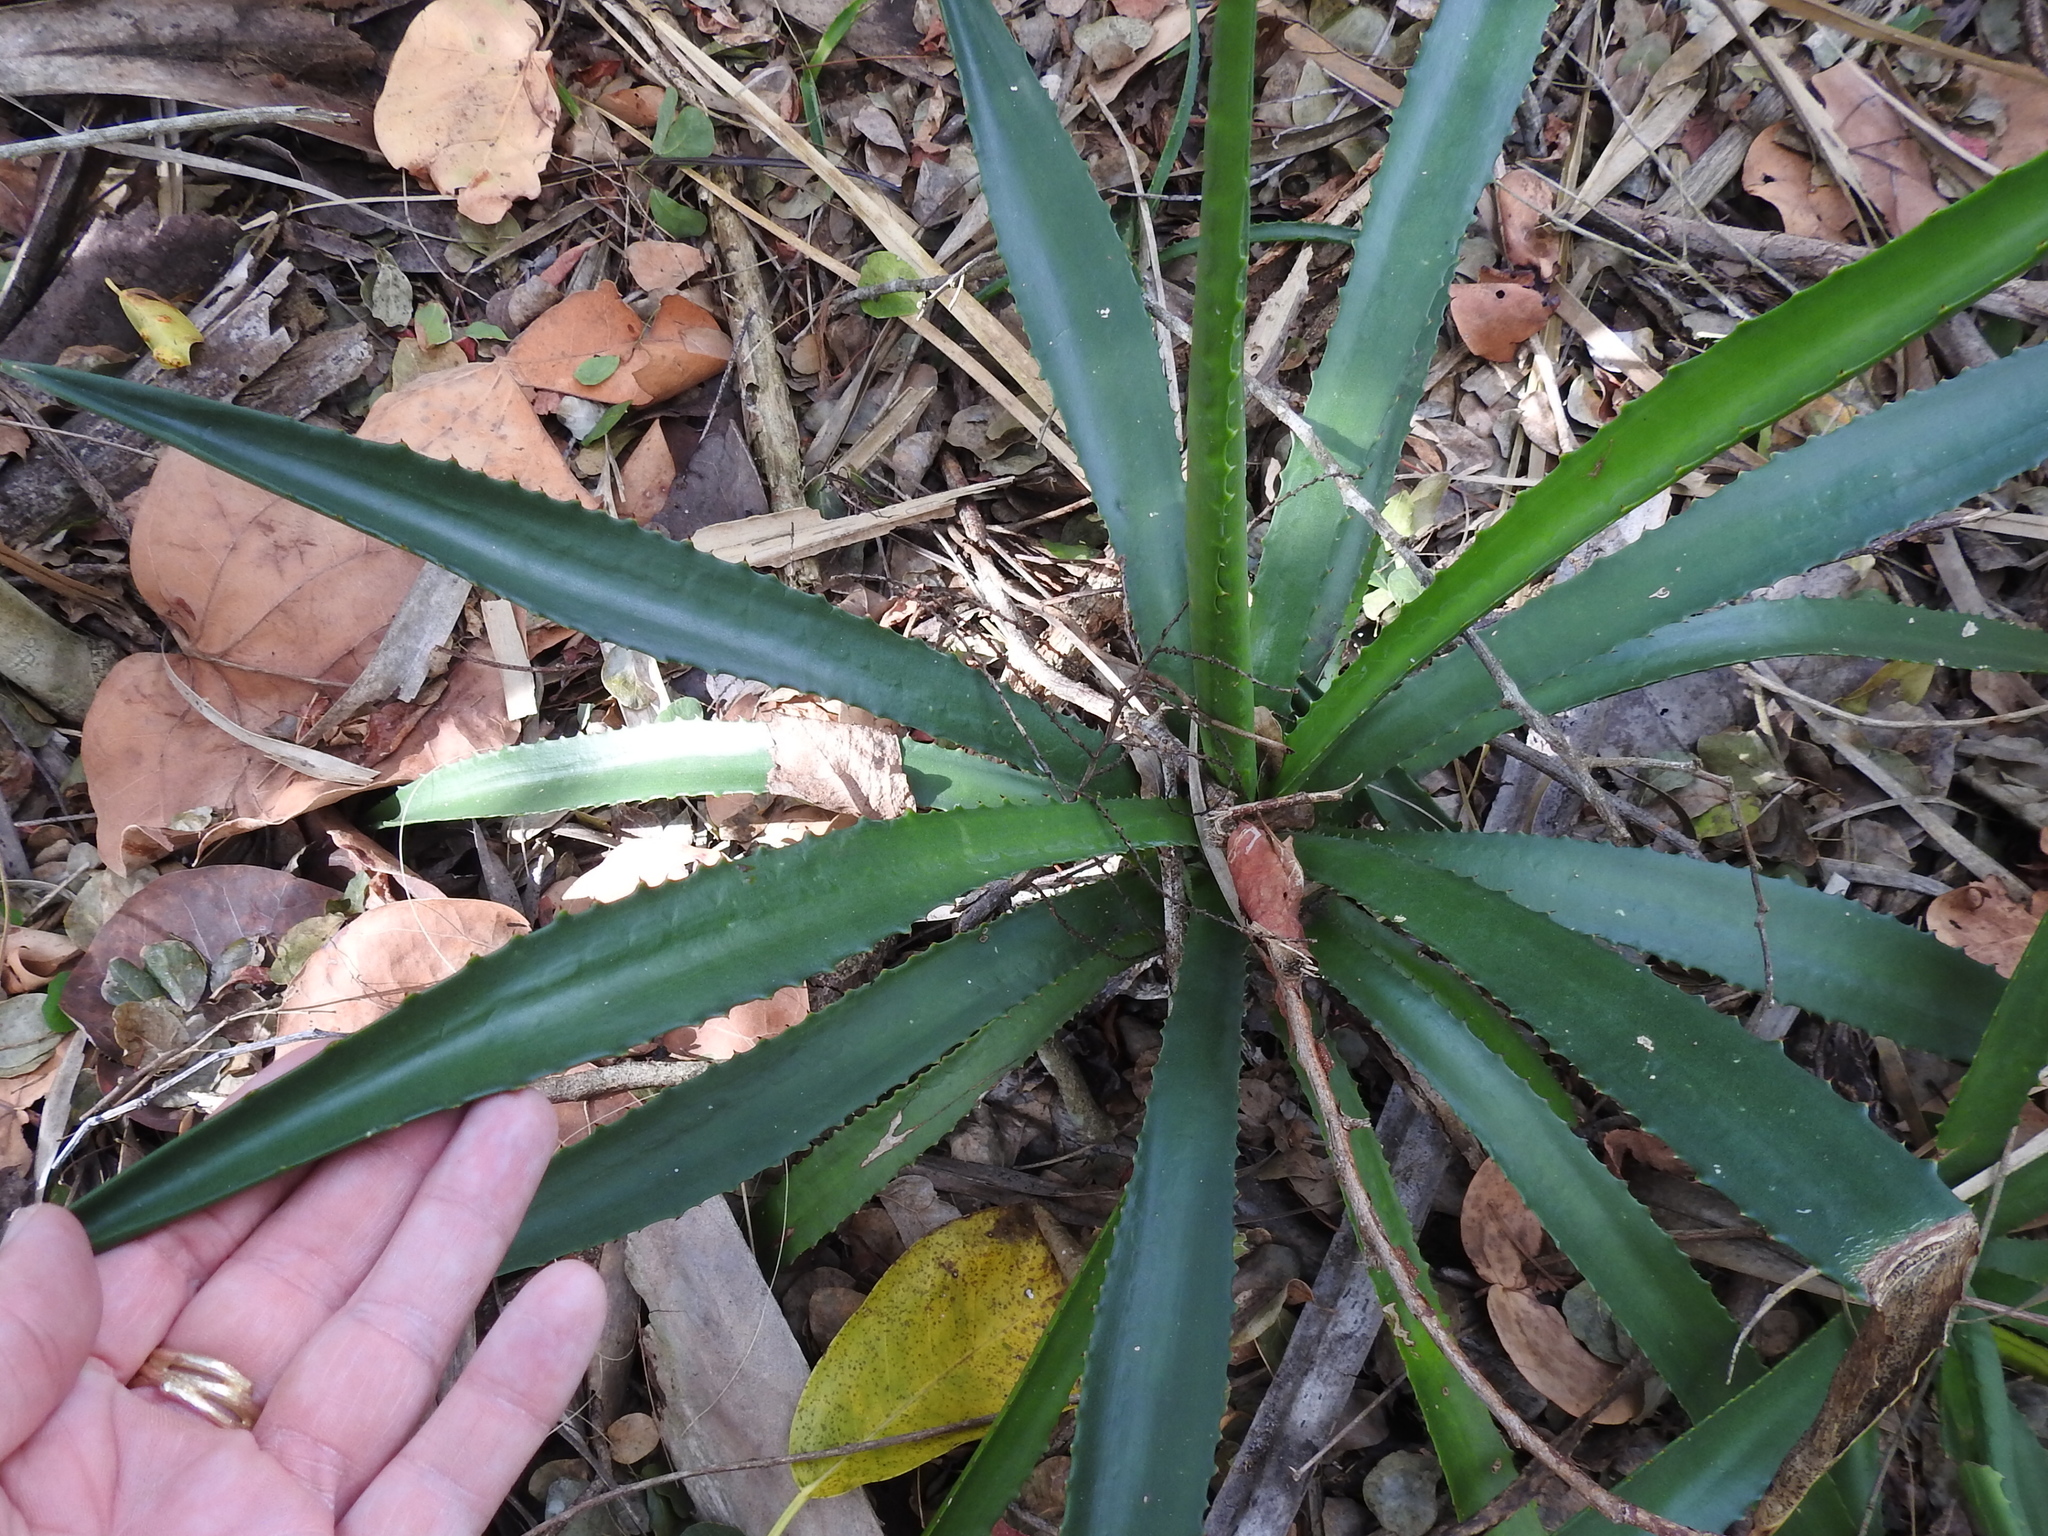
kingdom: Plantae
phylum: Tracheophyta
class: Liliopsida
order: Asparagales
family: Asparagaceae
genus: Agave
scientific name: Agave decipiens
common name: False sisal
